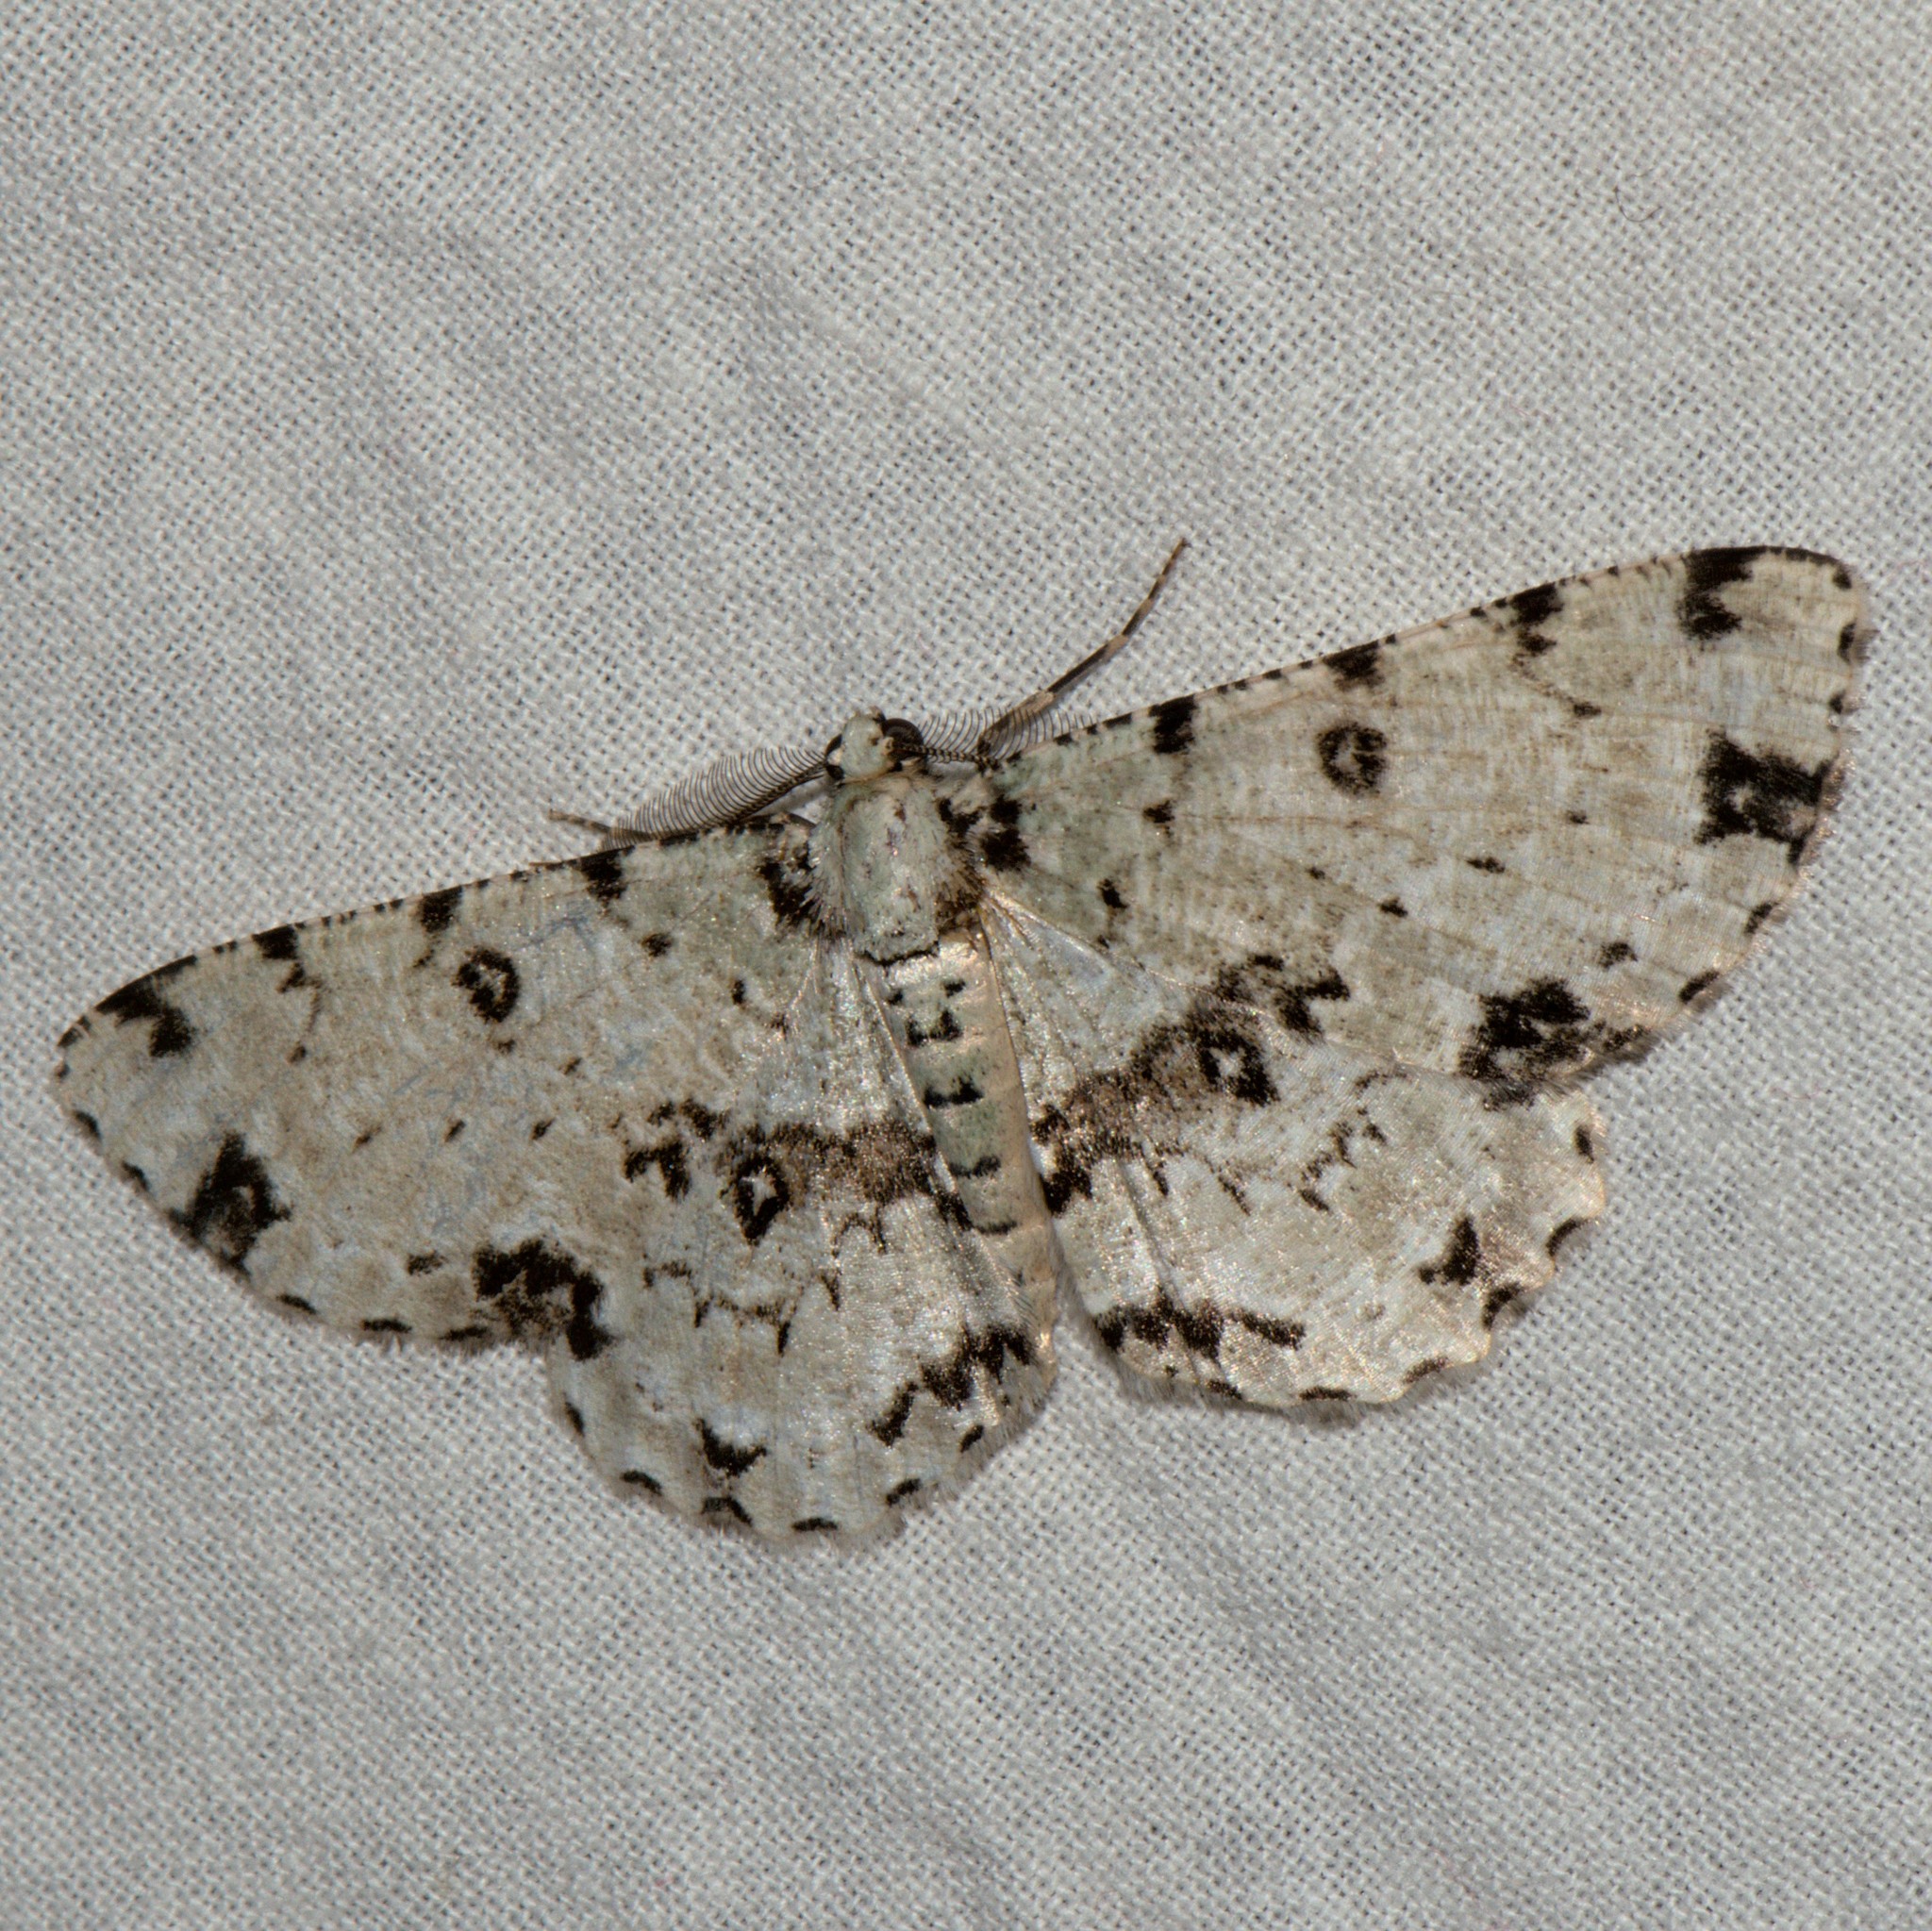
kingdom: Animalia
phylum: Arthropoda
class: Insecta
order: Lepidoptera
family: Geometridae
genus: Ophthalmitis
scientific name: Ophthalmitis herbidaria
